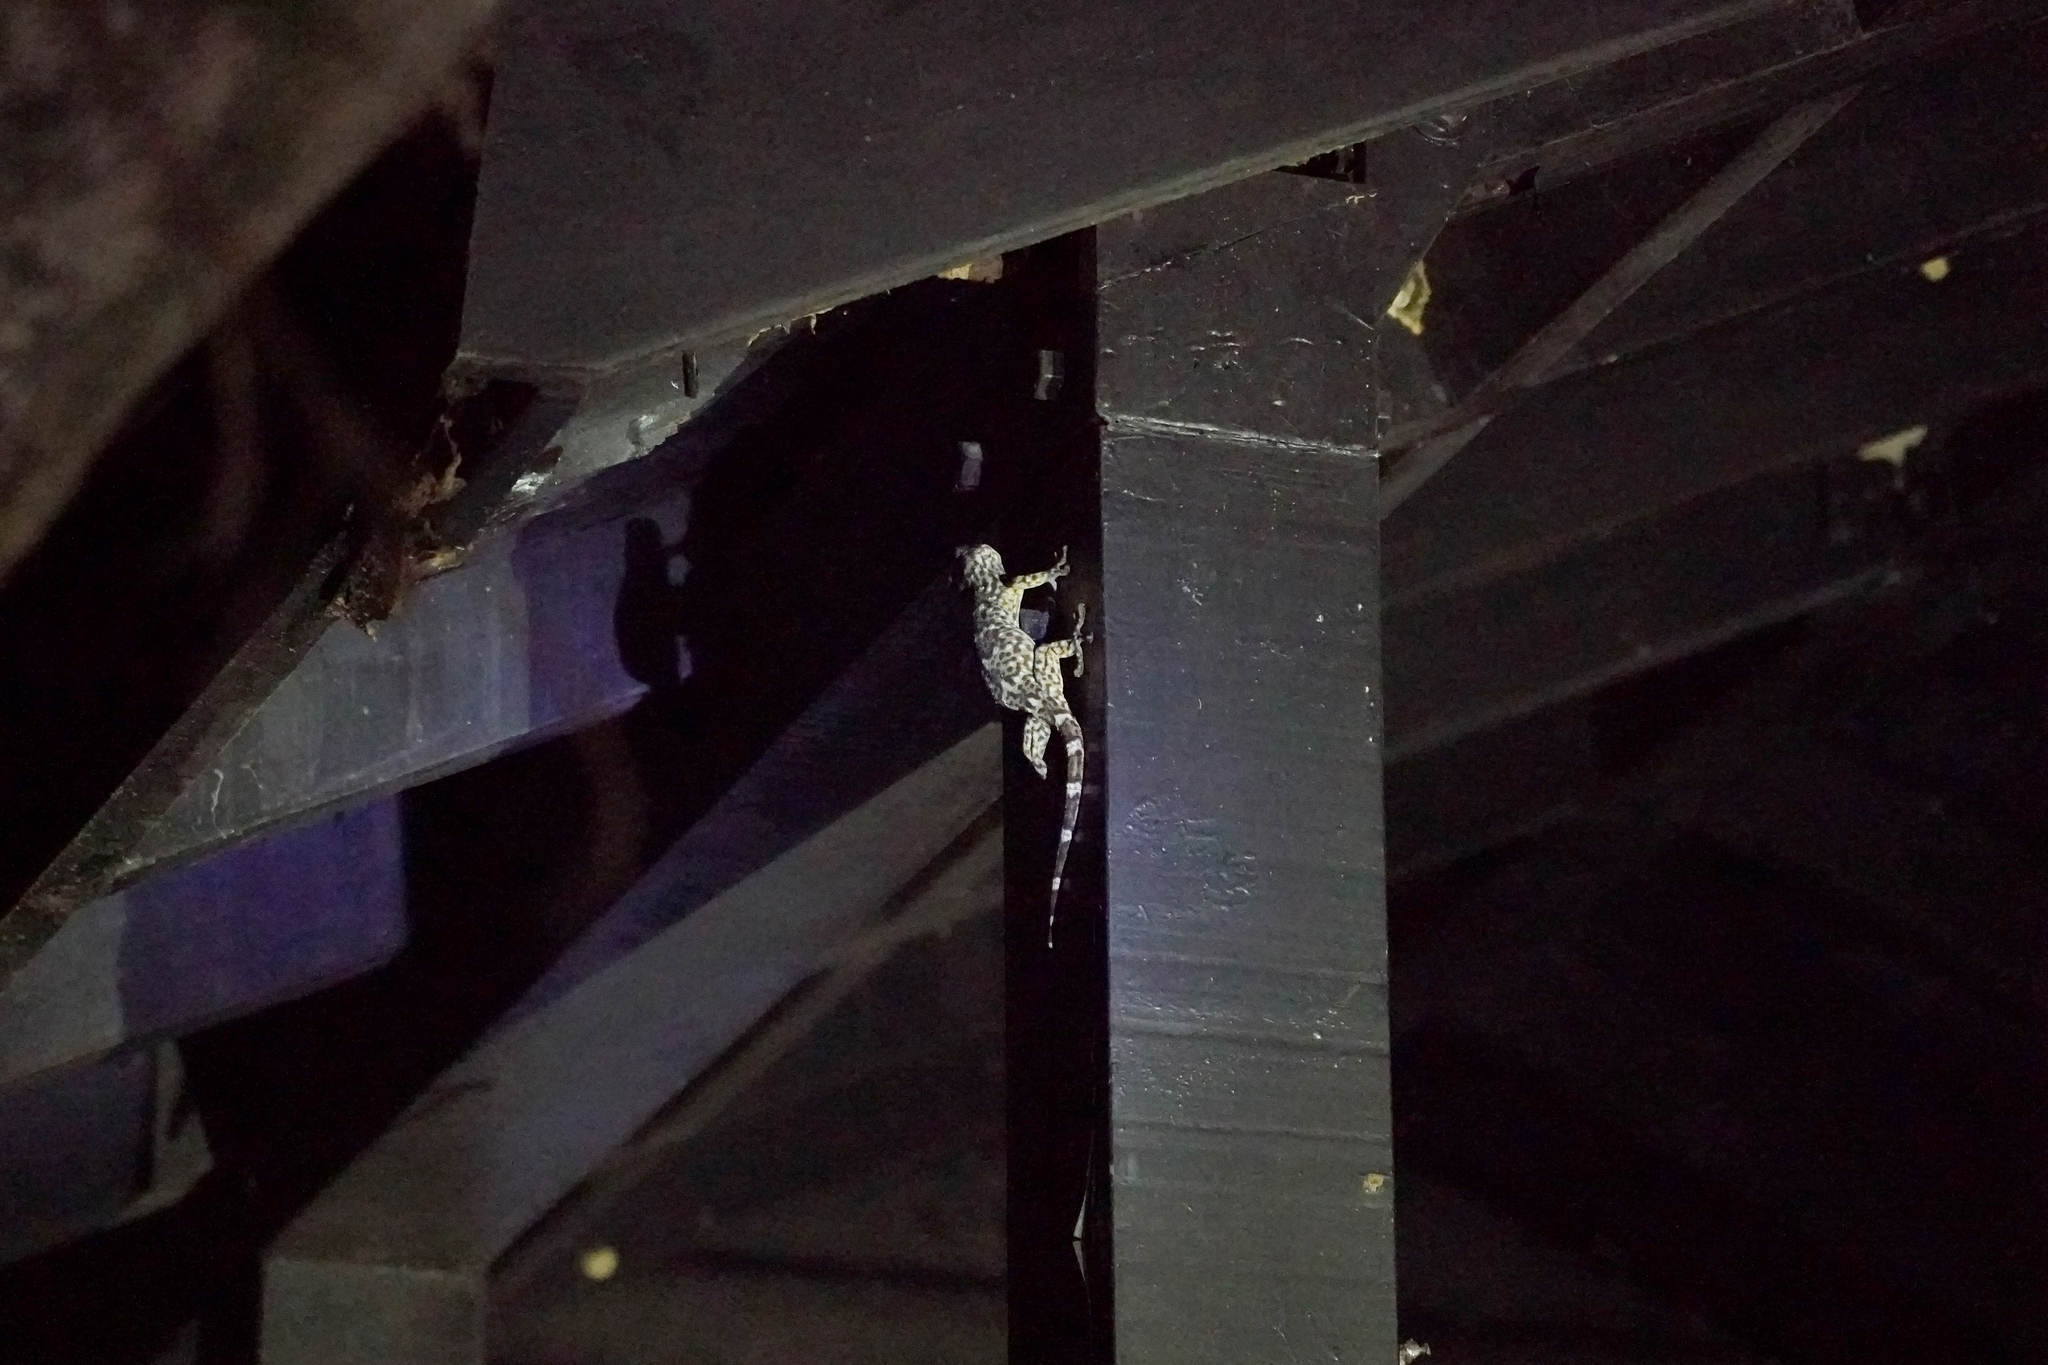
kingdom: Animalia
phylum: Chordata
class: Squamata
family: Gekkonidae
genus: Gekko
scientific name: Gekko gecko
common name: Tokay gecko
